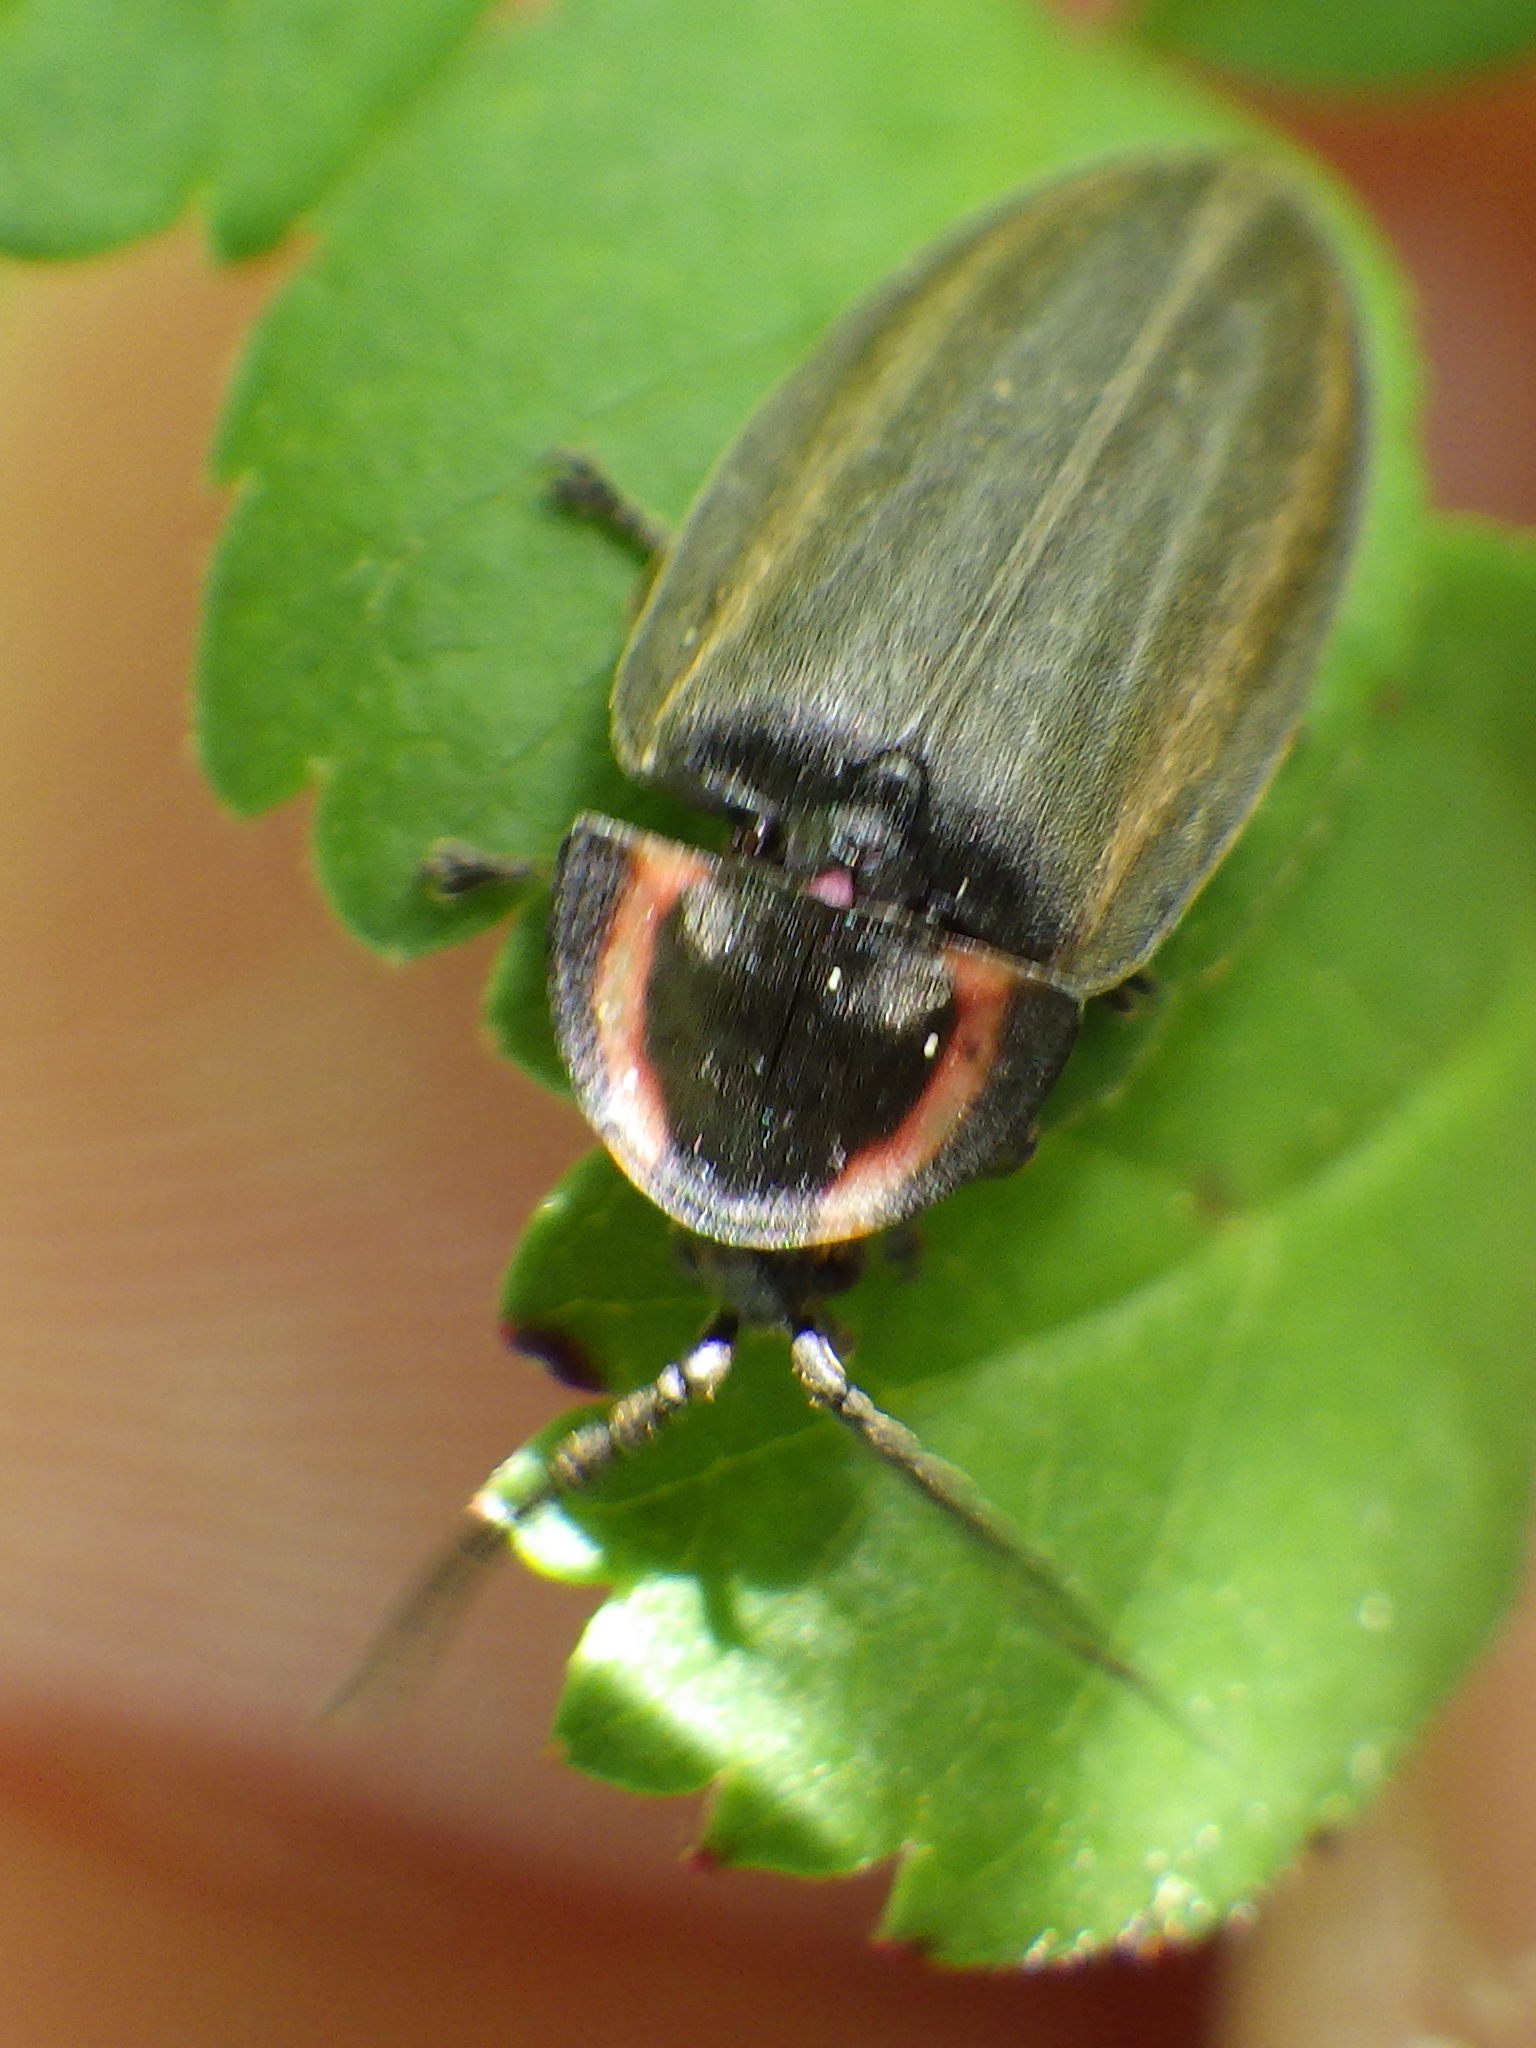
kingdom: Animalia
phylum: Arthropoda
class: Insecta
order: Coleoptera
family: Lampyridae
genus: Photinus
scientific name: Photinus corrusca
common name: Winter firefly
